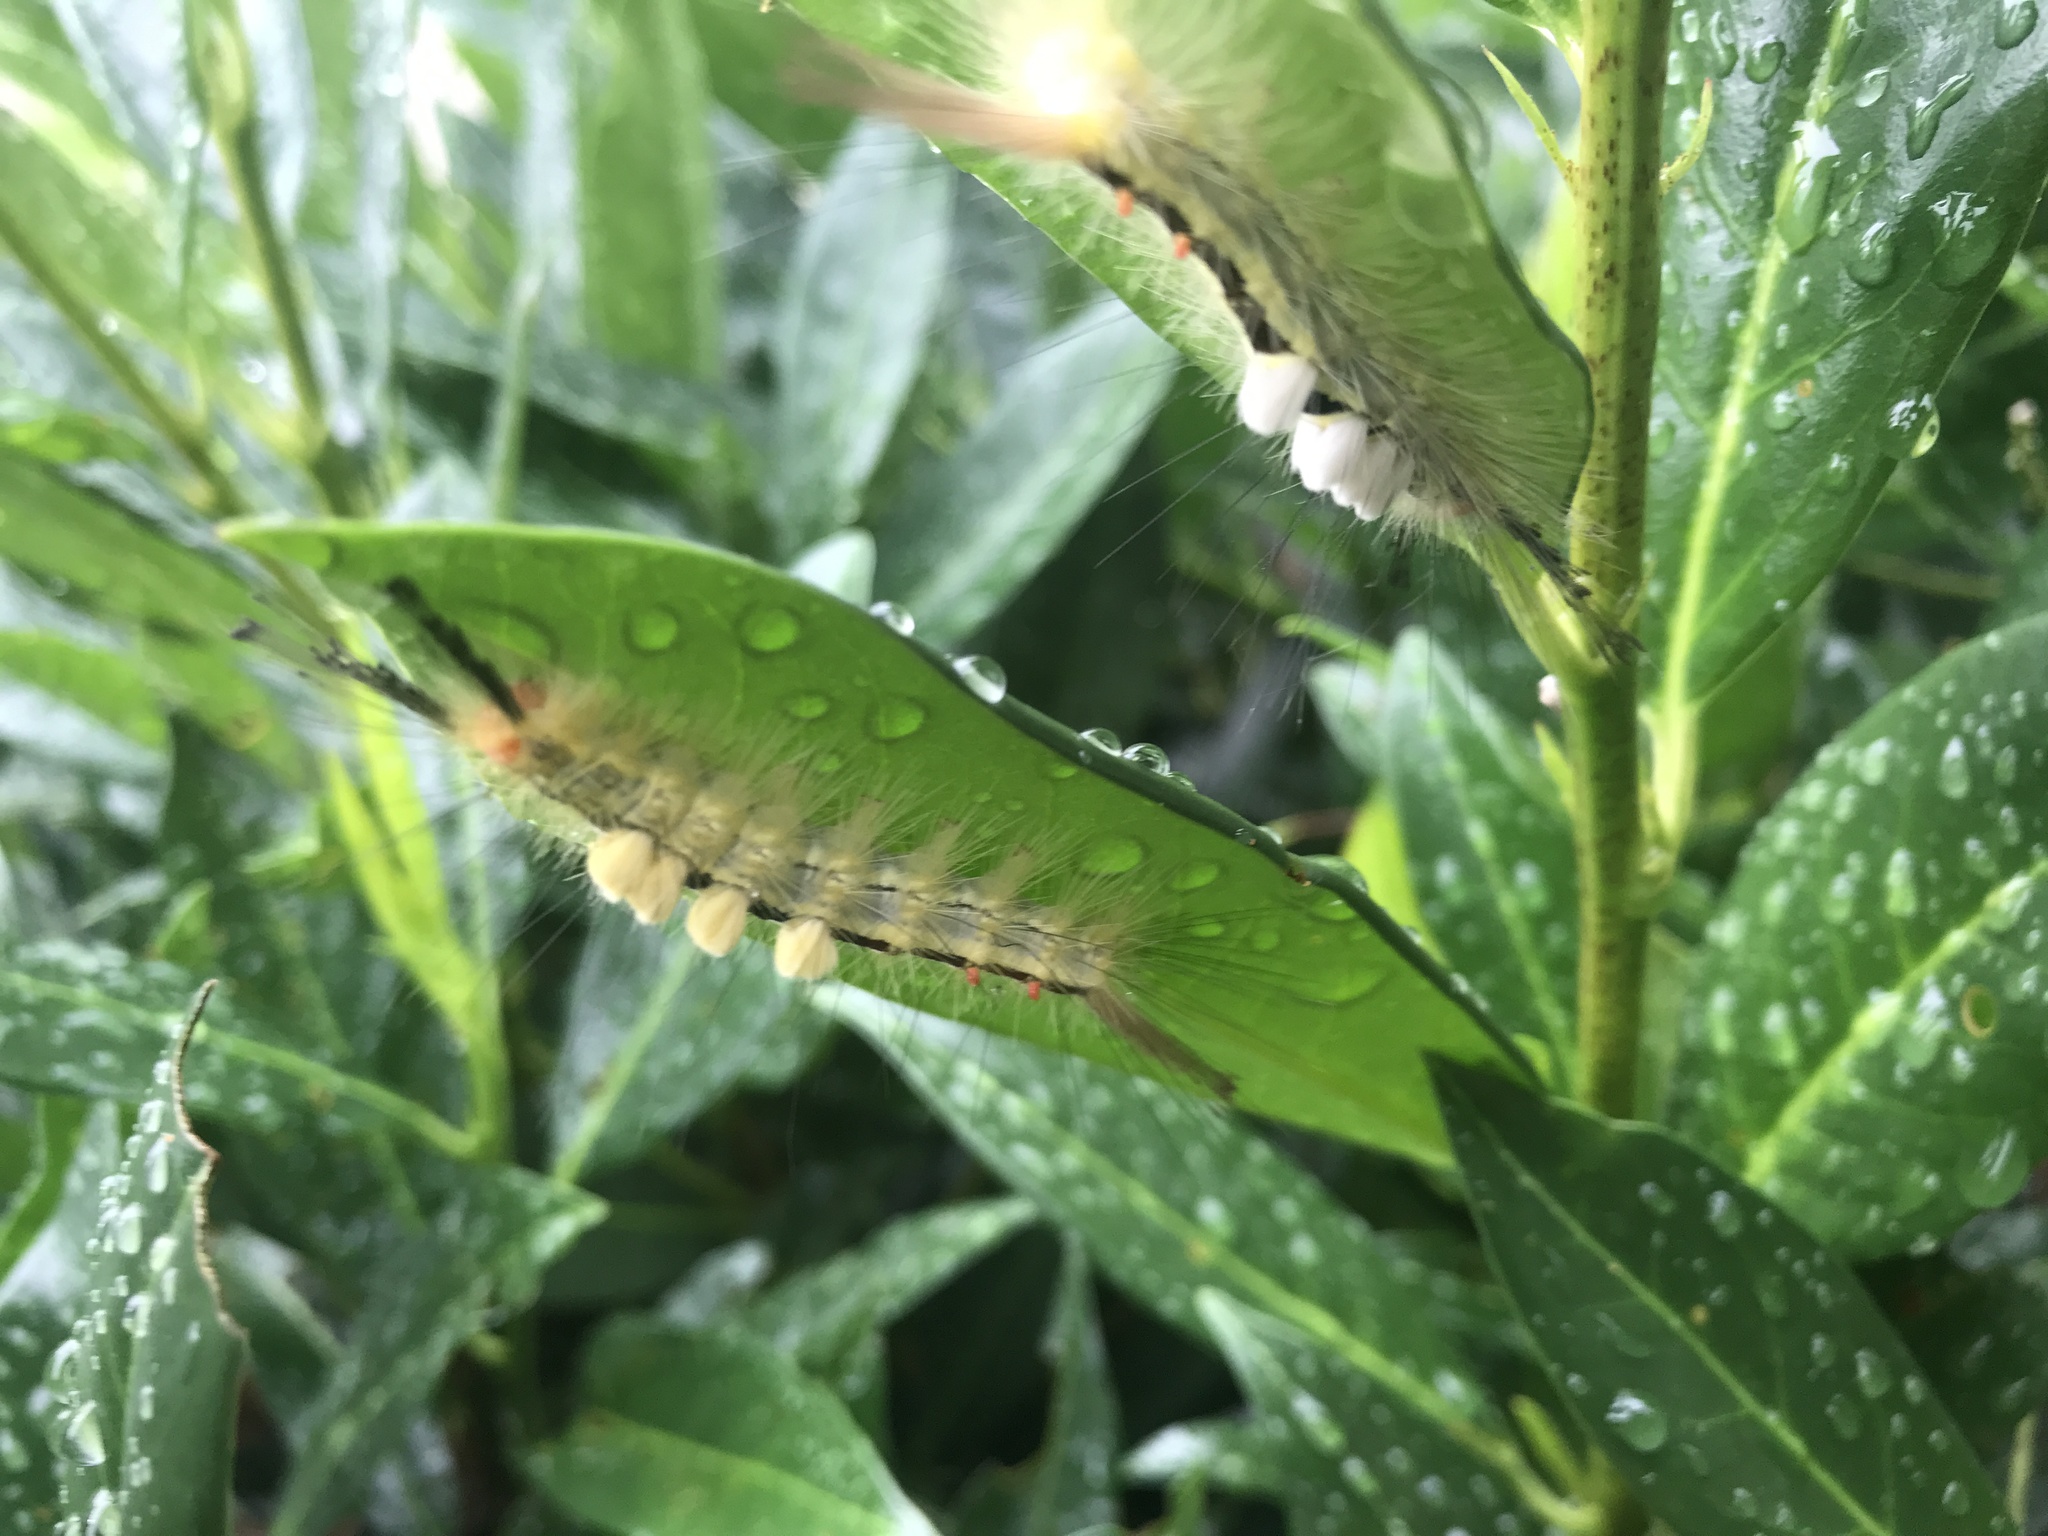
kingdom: Animalia
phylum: Arthropoda
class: Insecta
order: Lepidoptera
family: Erebidae
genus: Orgyia
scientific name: Orgyia leucostigma
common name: White-marked tussock moth
